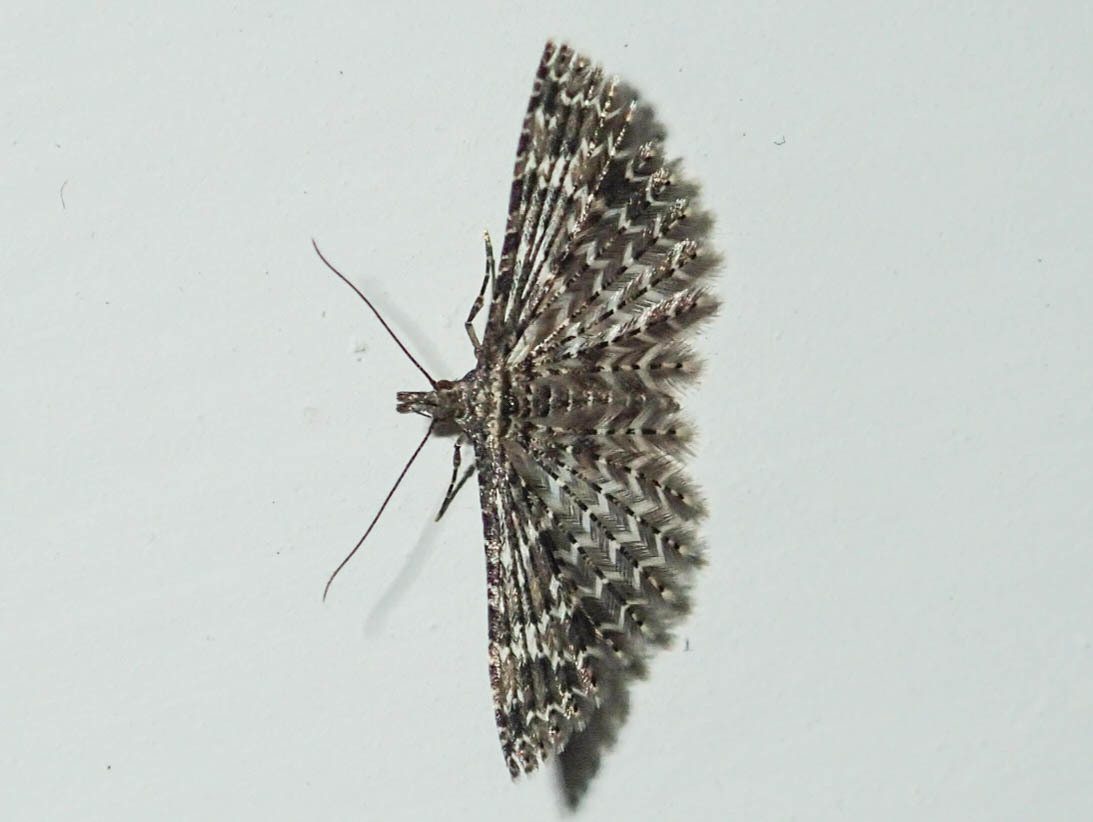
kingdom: Animalia
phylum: Arthropoda
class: Insecta
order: Lepidoptera
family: Alucitidae
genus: Alucita
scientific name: Alucita huebneri
